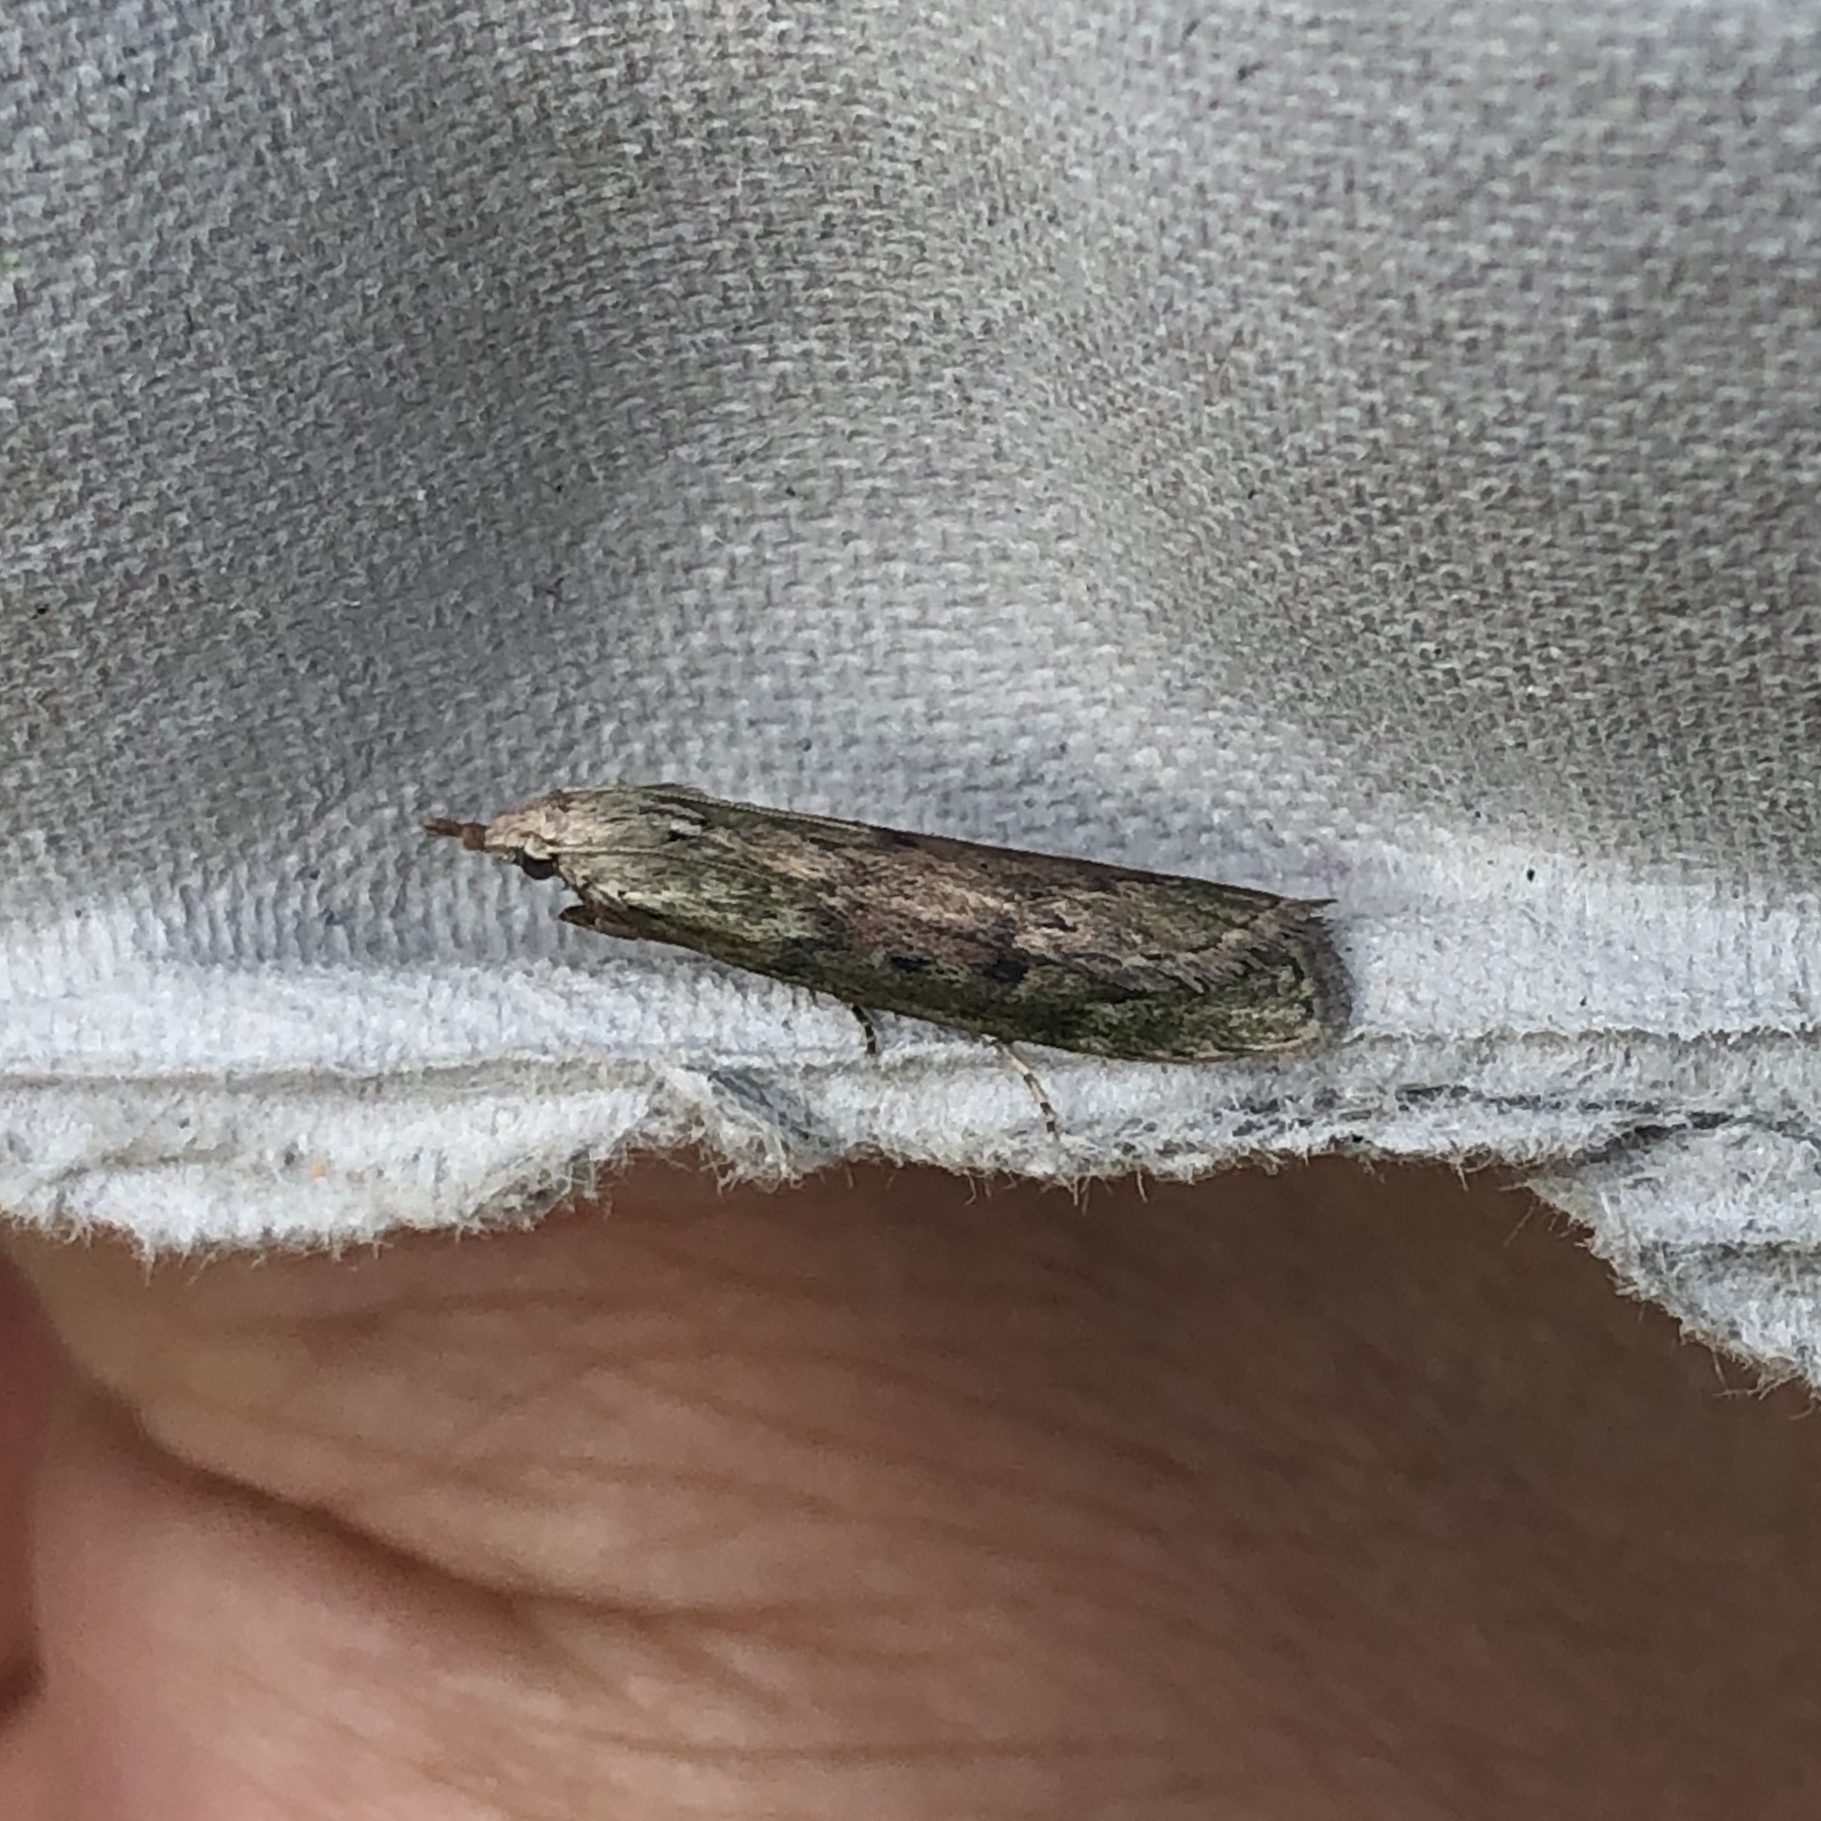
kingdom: Animalia
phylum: Arthropoda
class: Insecta
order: Lepidoptera
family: Pyralidae
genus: Aphomia
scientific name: Aphomia sociella
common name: Bee moth
